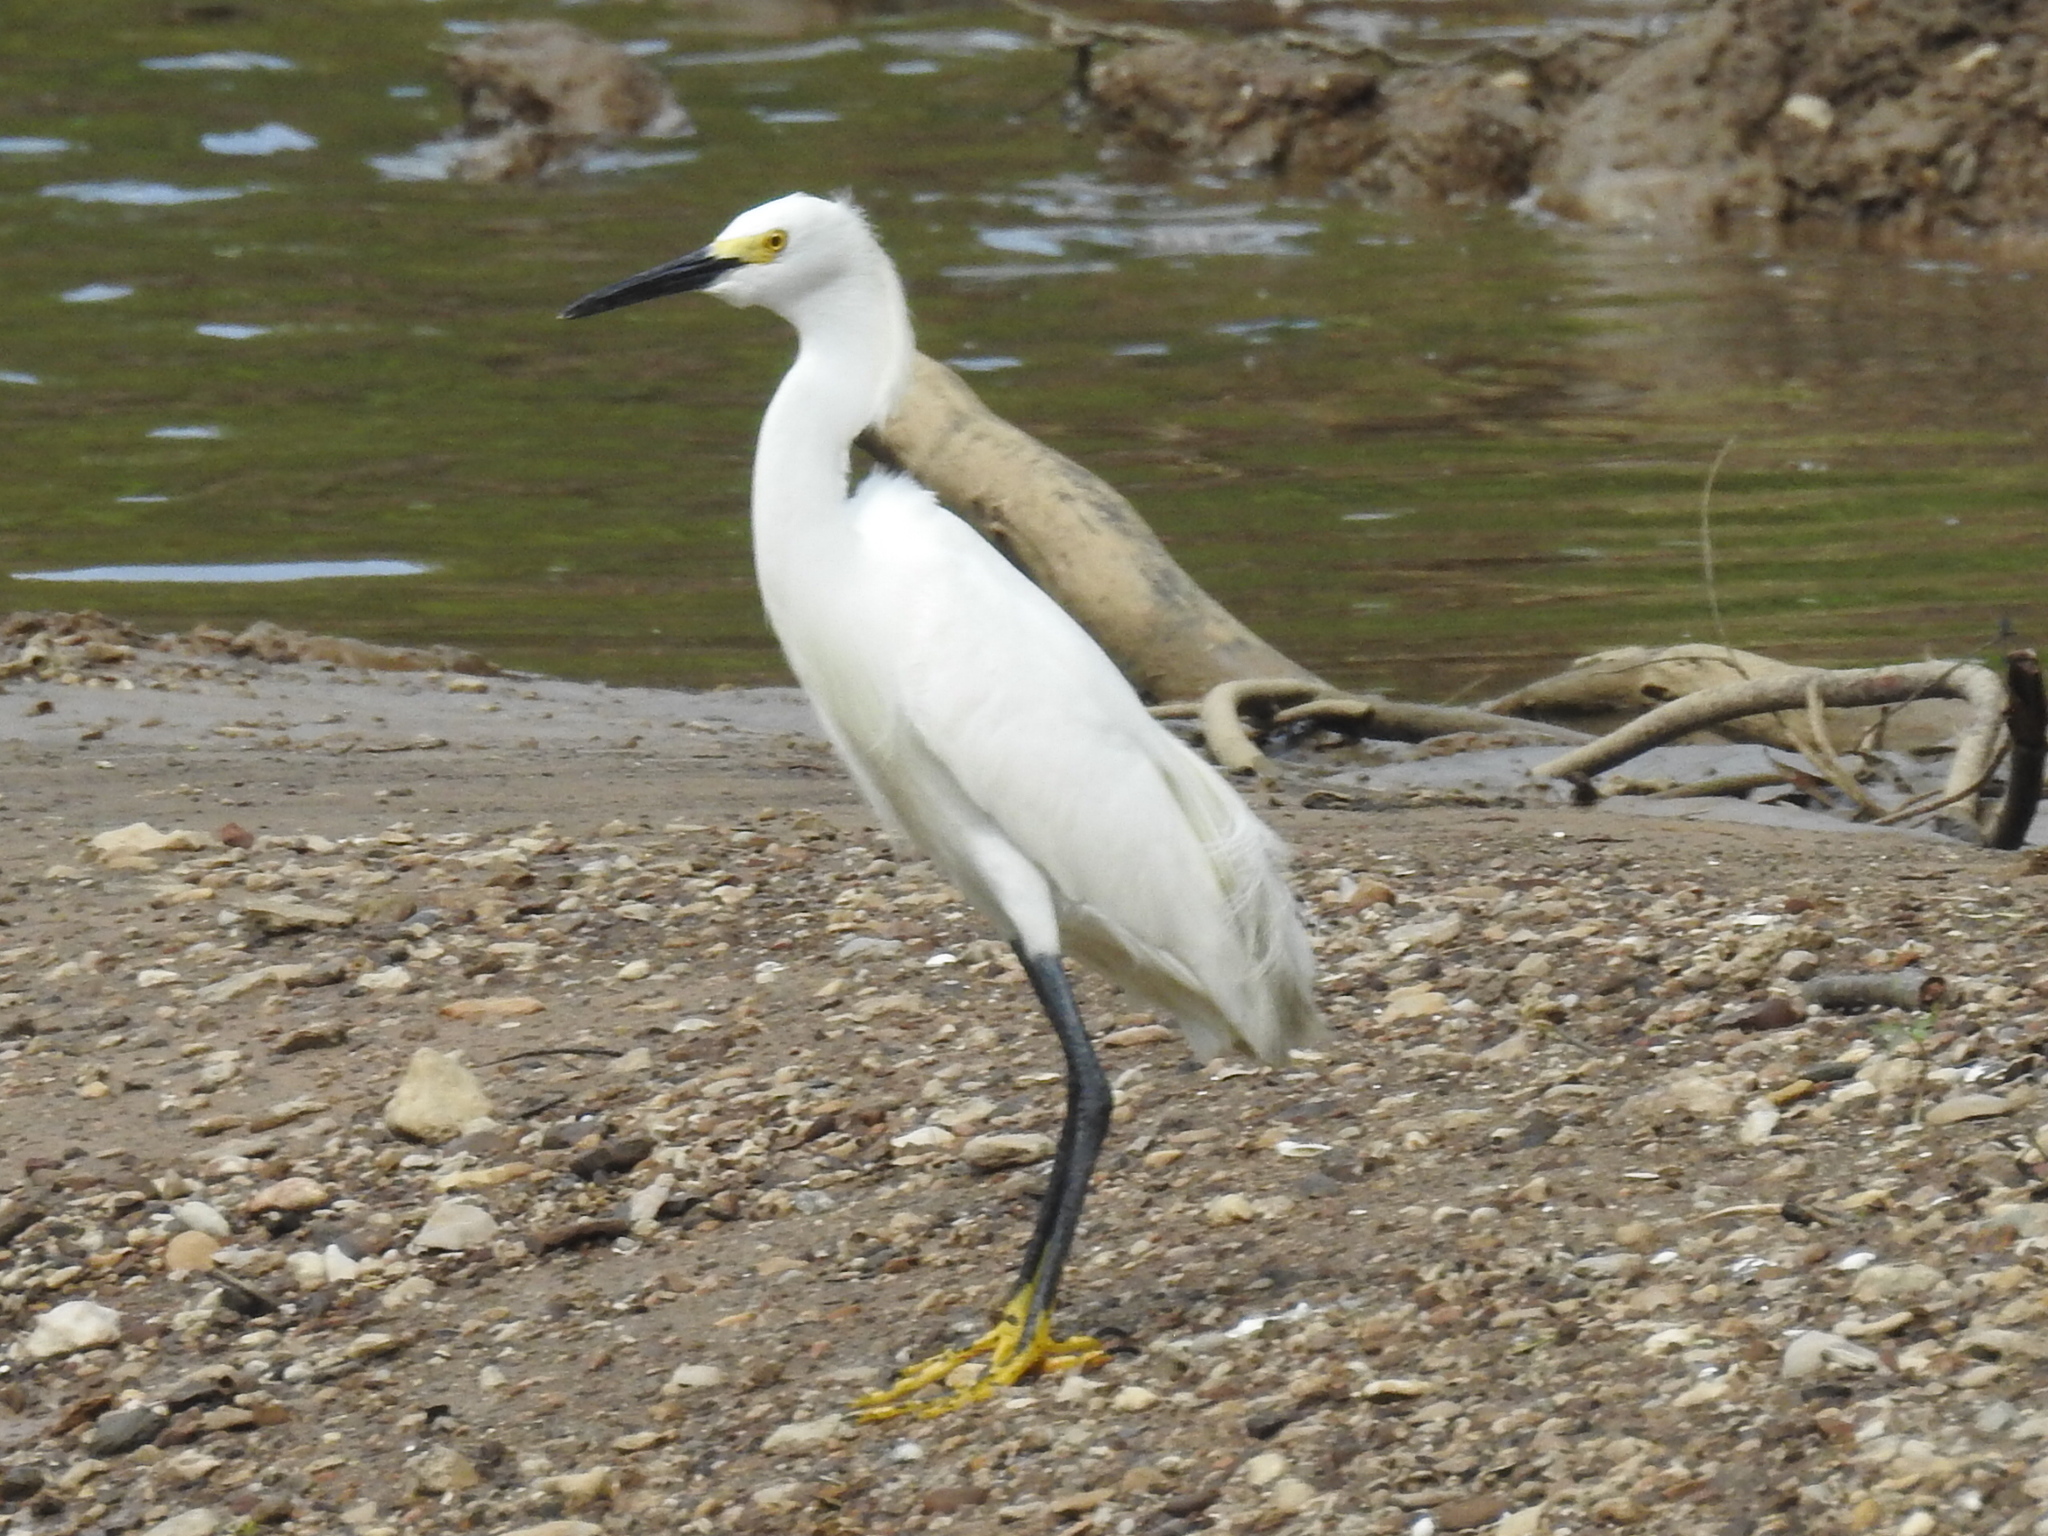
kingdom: Animalia
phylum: Chordata
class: Aves
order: Pelecaniformes
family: Ardeidae
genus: Egretta
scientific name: Egretta thula
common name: Snowy egret
